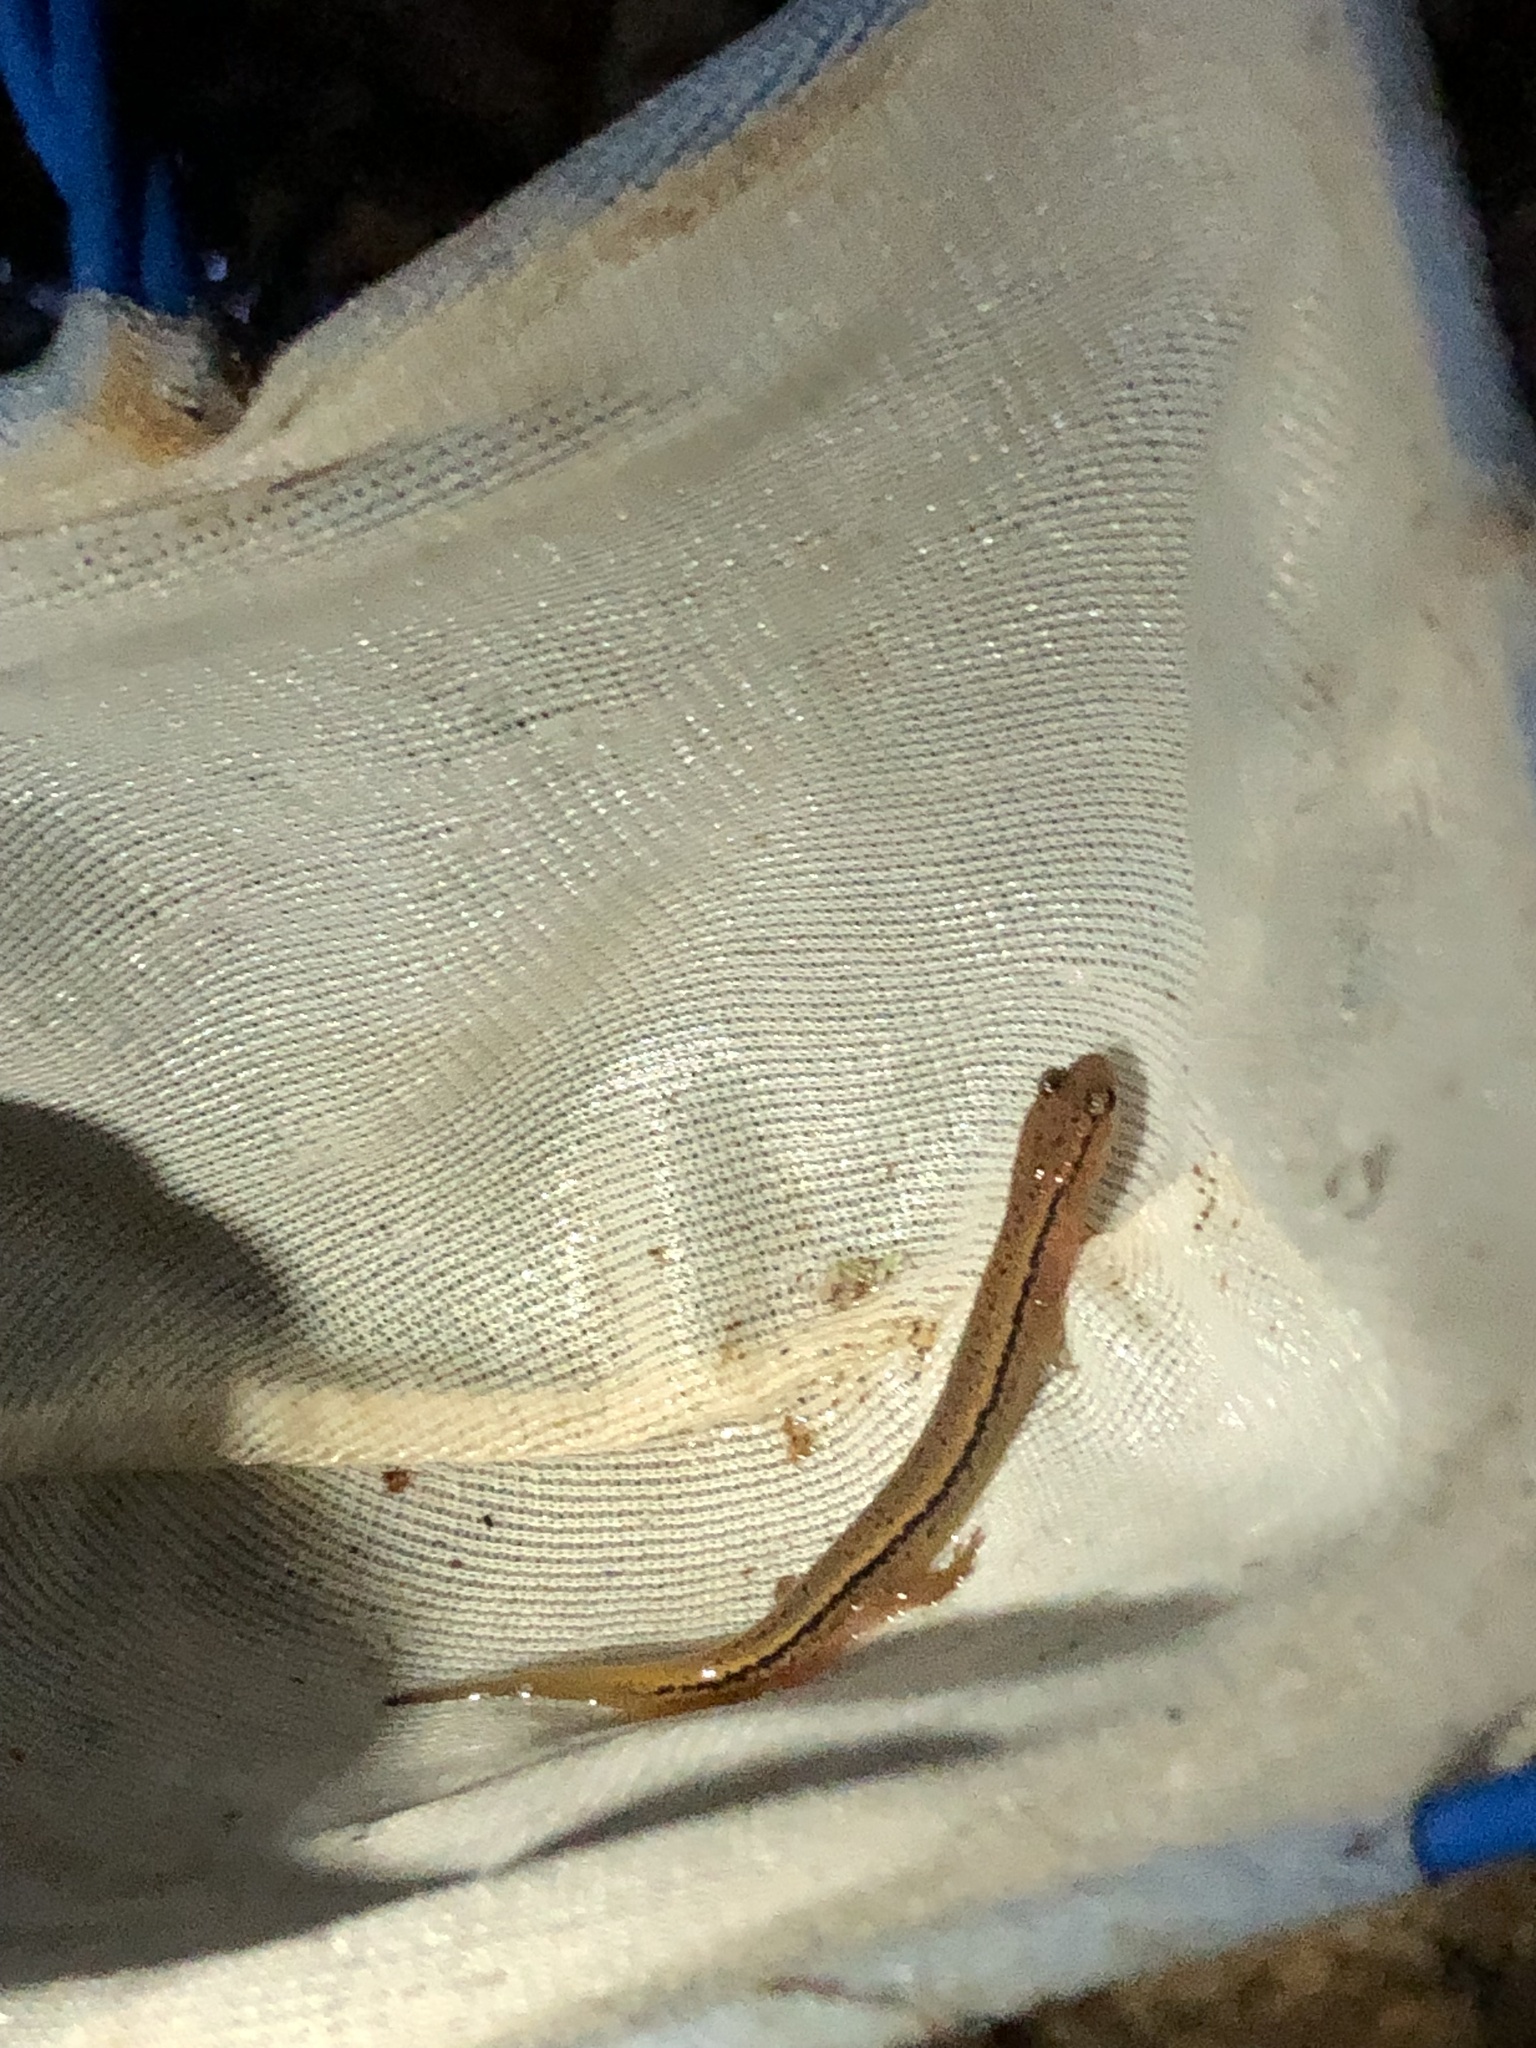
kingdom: Animalia
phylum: Chordata
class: Amphibia
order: Caudata
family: Plethodontidae
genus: Eurycea
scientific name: Eurycea bislineata
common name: Northern two-lined salamander
